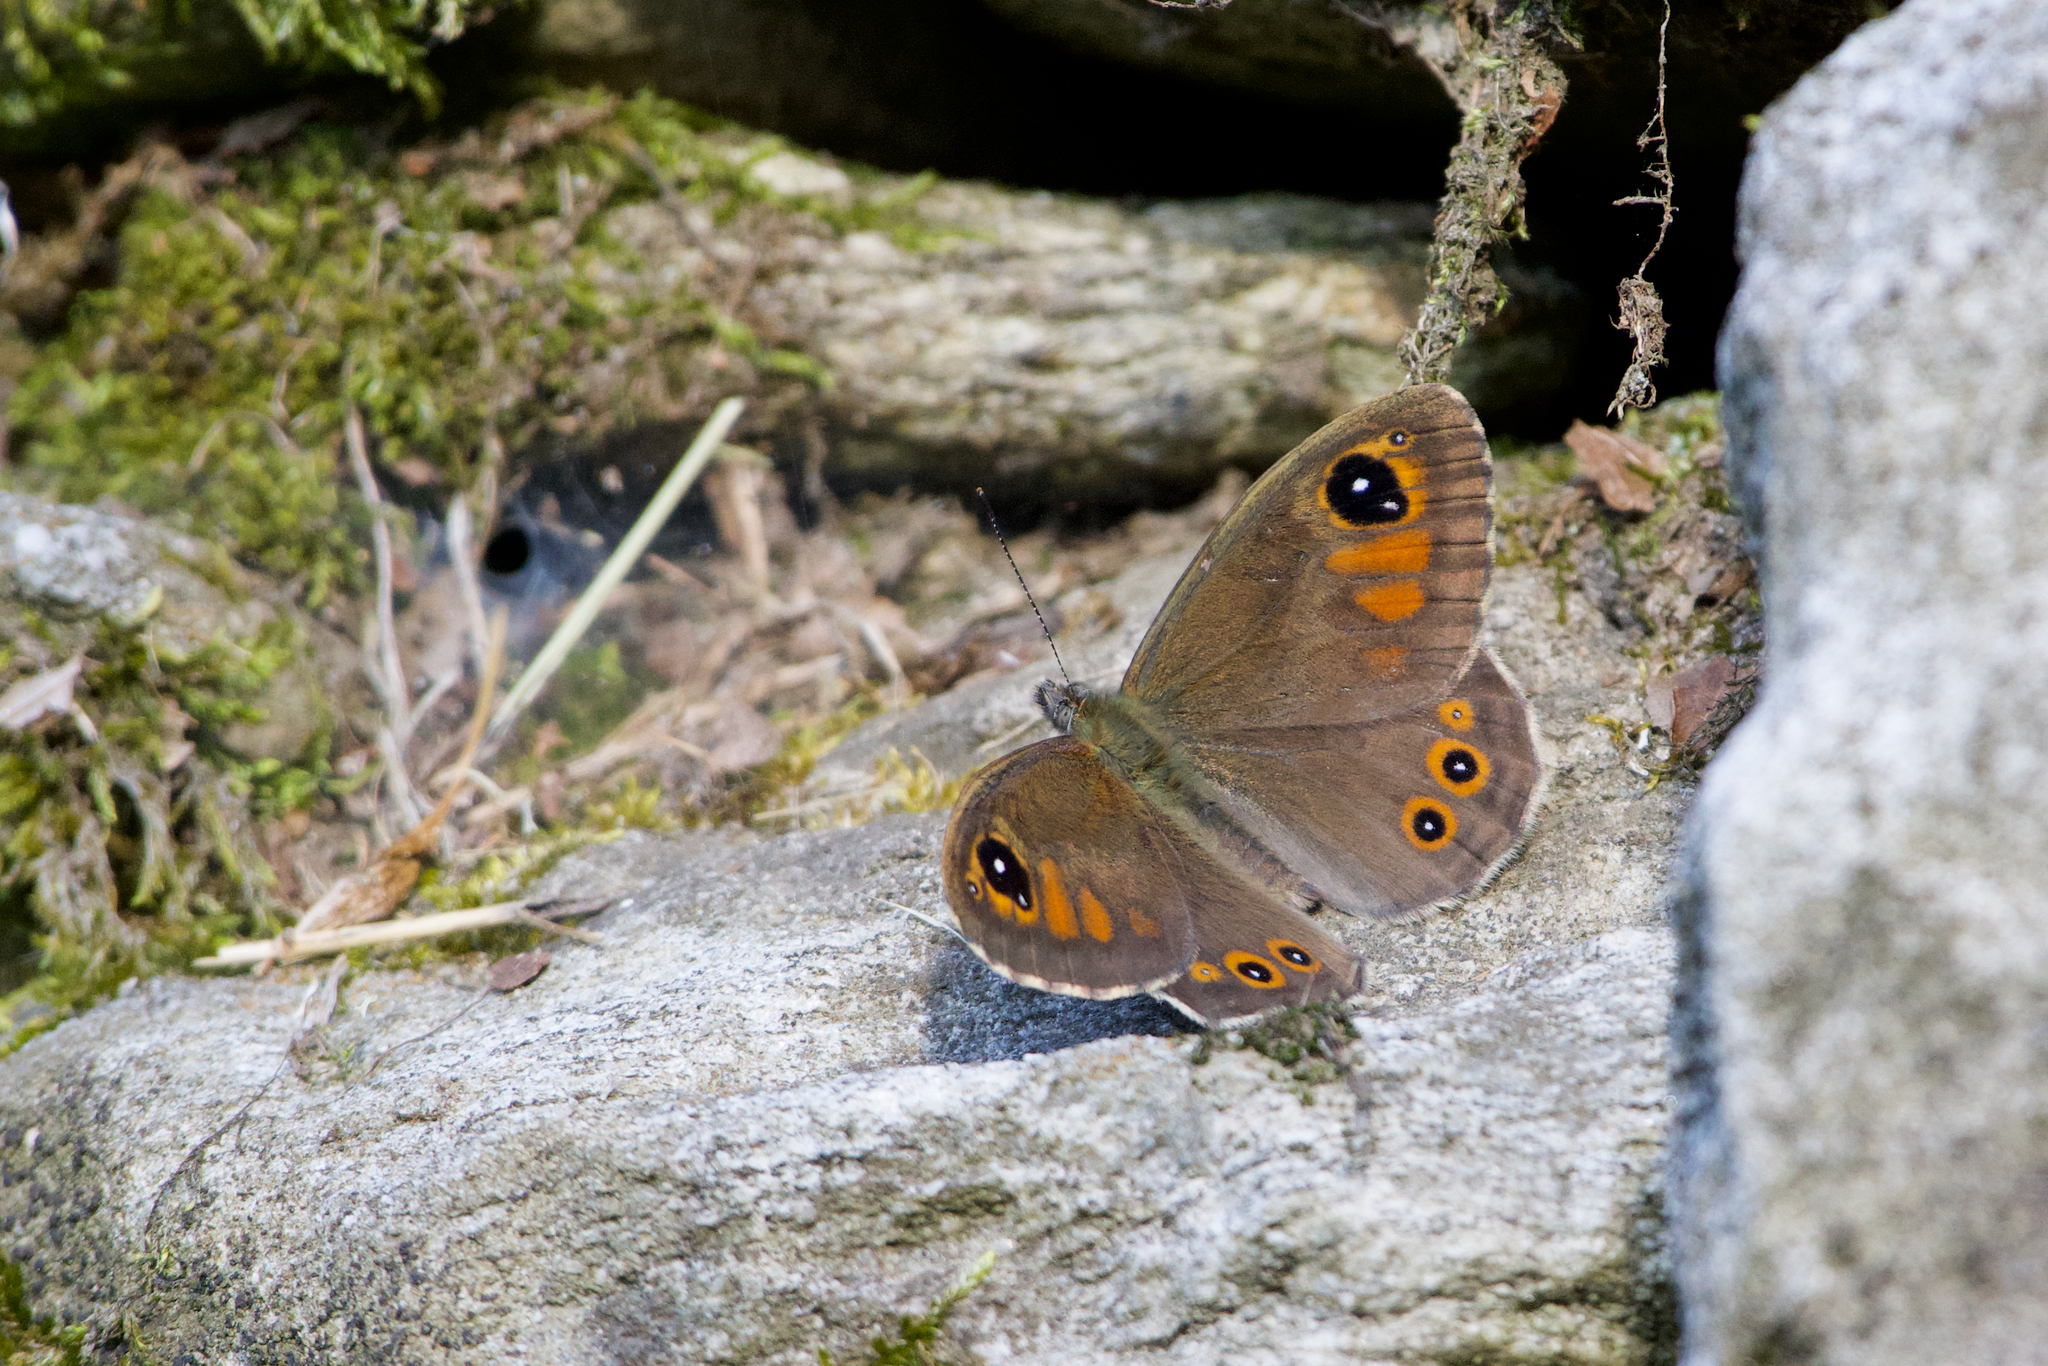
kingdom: Animalia
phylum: Arthropoda
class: Insecta
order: Lepidoptera
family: Nymphalidae
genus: Pararge
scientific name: Pararge Lasiommata maera
